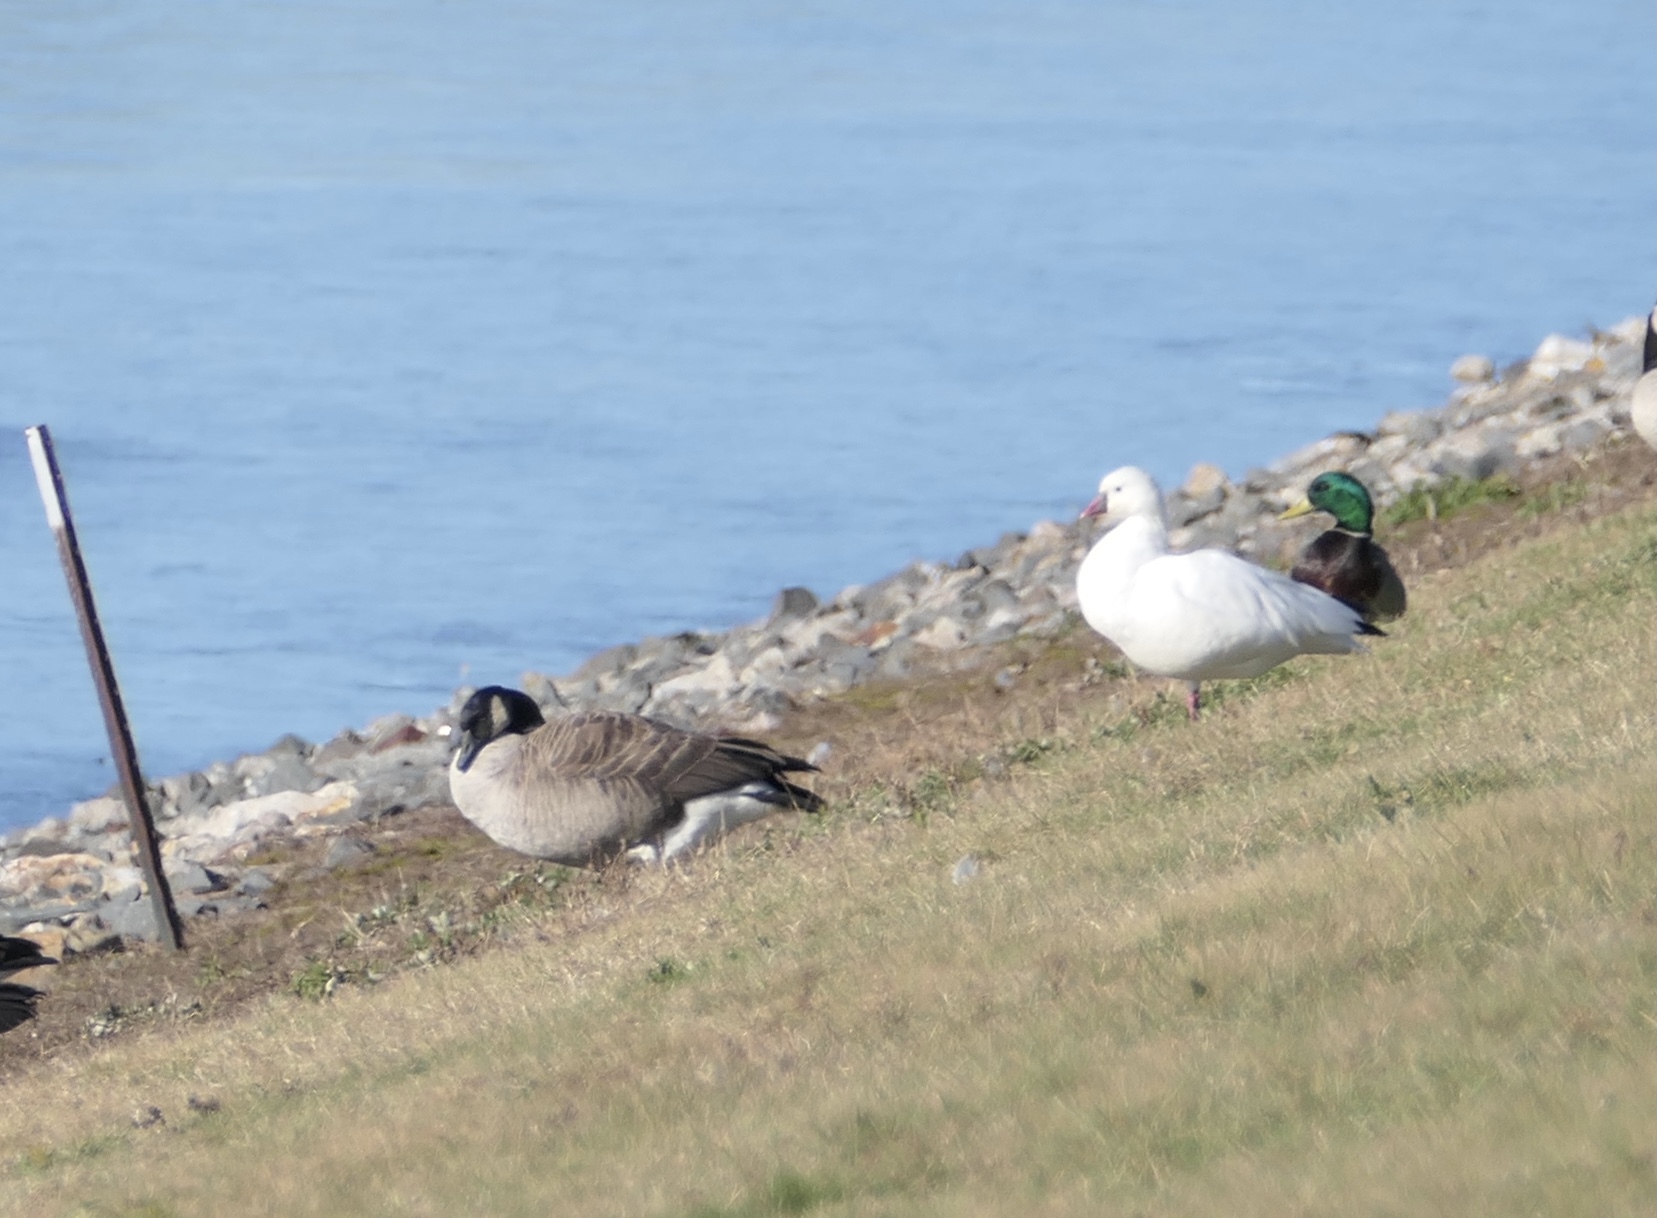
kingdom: Animalia
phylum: Chordata
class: Aves
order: Anseriformes
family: Anatidae
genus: Branta
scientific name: Branta canadensis
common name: Canada goose
